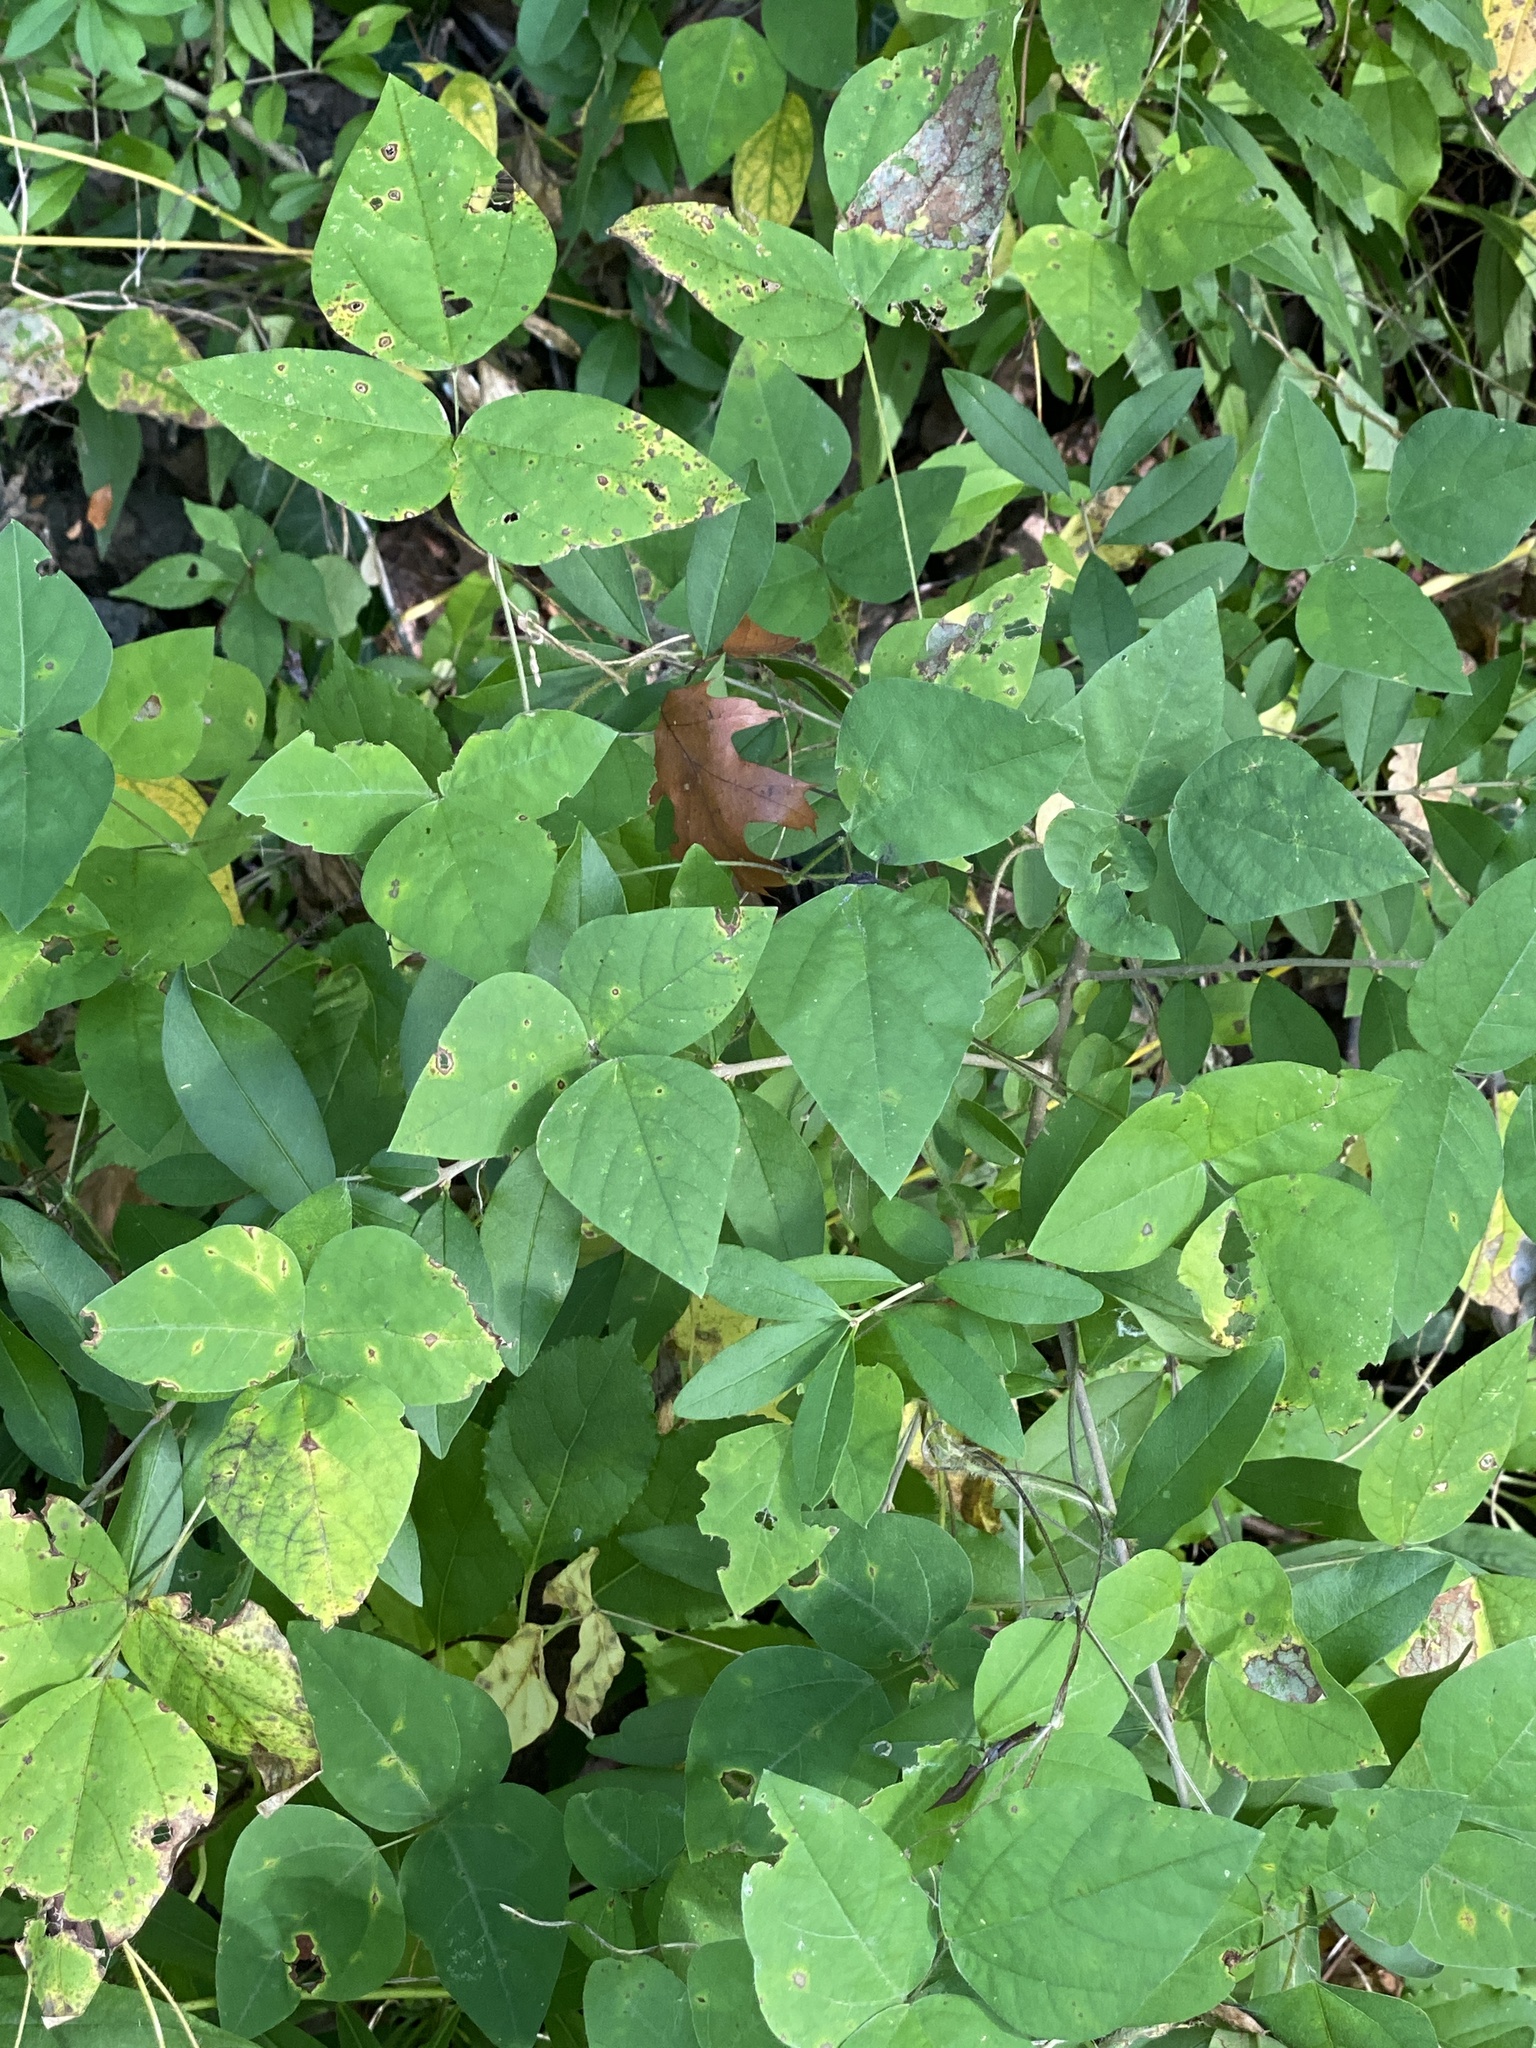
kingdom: Plantae
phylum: Tracheophyta
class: Magnoliopsida
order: Fabales
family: Fabaceae
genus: Amphicarpaea
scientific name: Amphicarpaea bracteata
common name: American hog peanut
